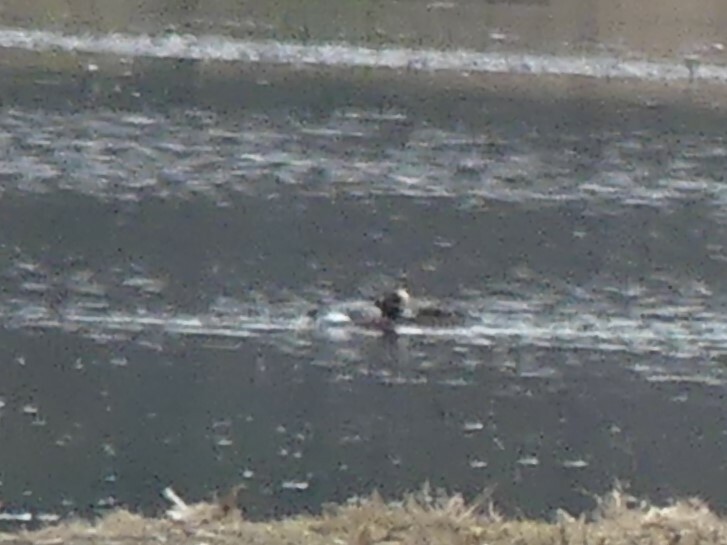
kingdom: Animalia
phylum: Chordata
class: Aves
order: Anseriformes
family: Anatidae
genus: Mareca
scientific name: Mareca penelope
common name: Eurasian wigeon
